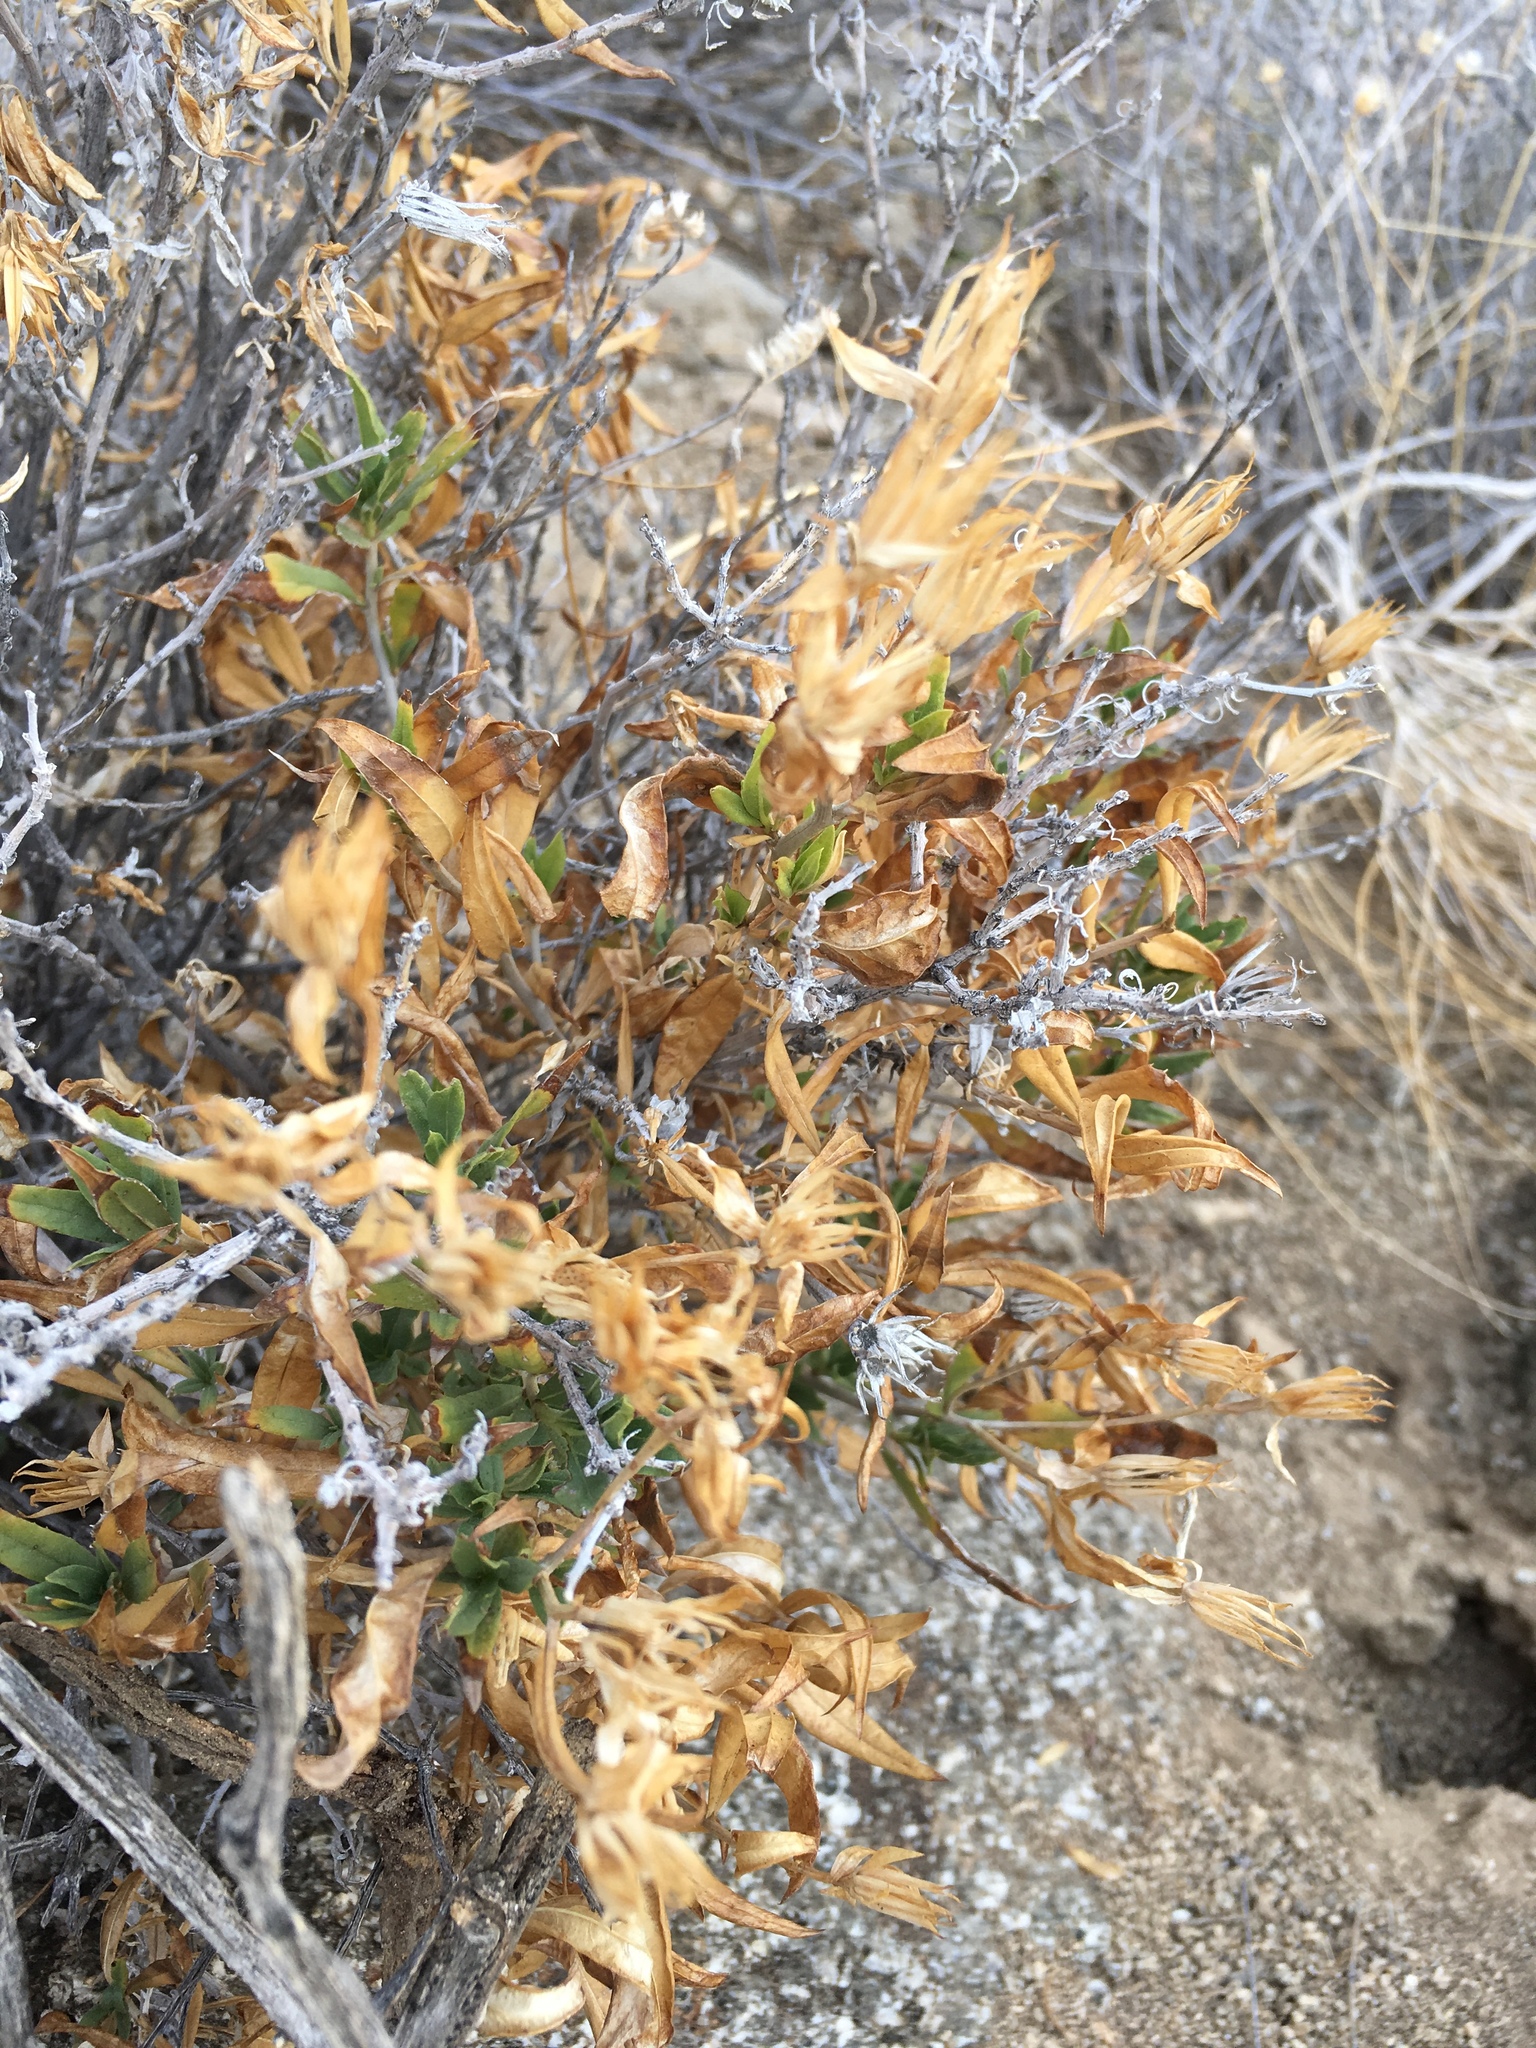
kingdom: Plantae
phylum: Tracheophyta
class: Magnoliopsida
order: Asterales
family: Asteraceae
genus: Trixis
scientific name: Trixis californica
